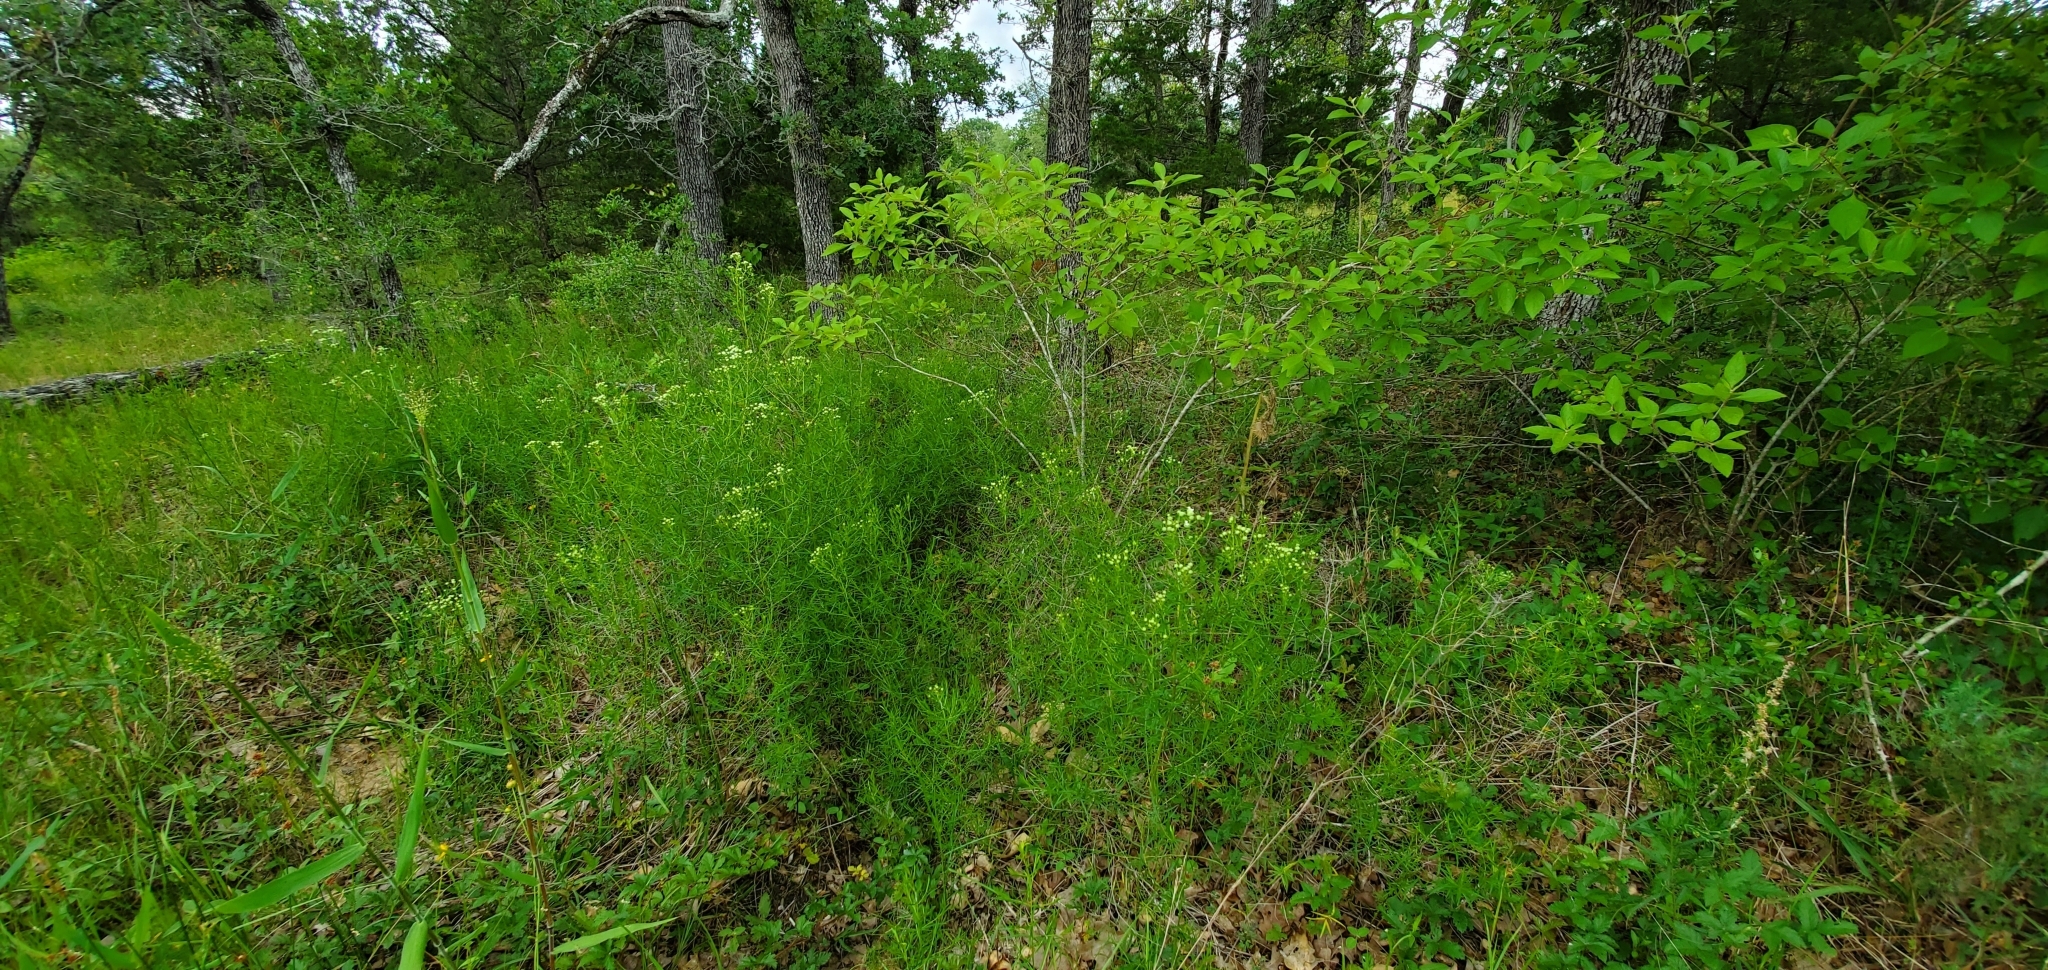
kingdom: Plantae
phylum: Tracheophyta
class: Magnoliopsida
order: Lamiales
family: Lamiaceae
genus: Pycnanthemum
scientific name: Pycnanthemum tenuifolium
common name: Narrow-leaf mountain-mint
